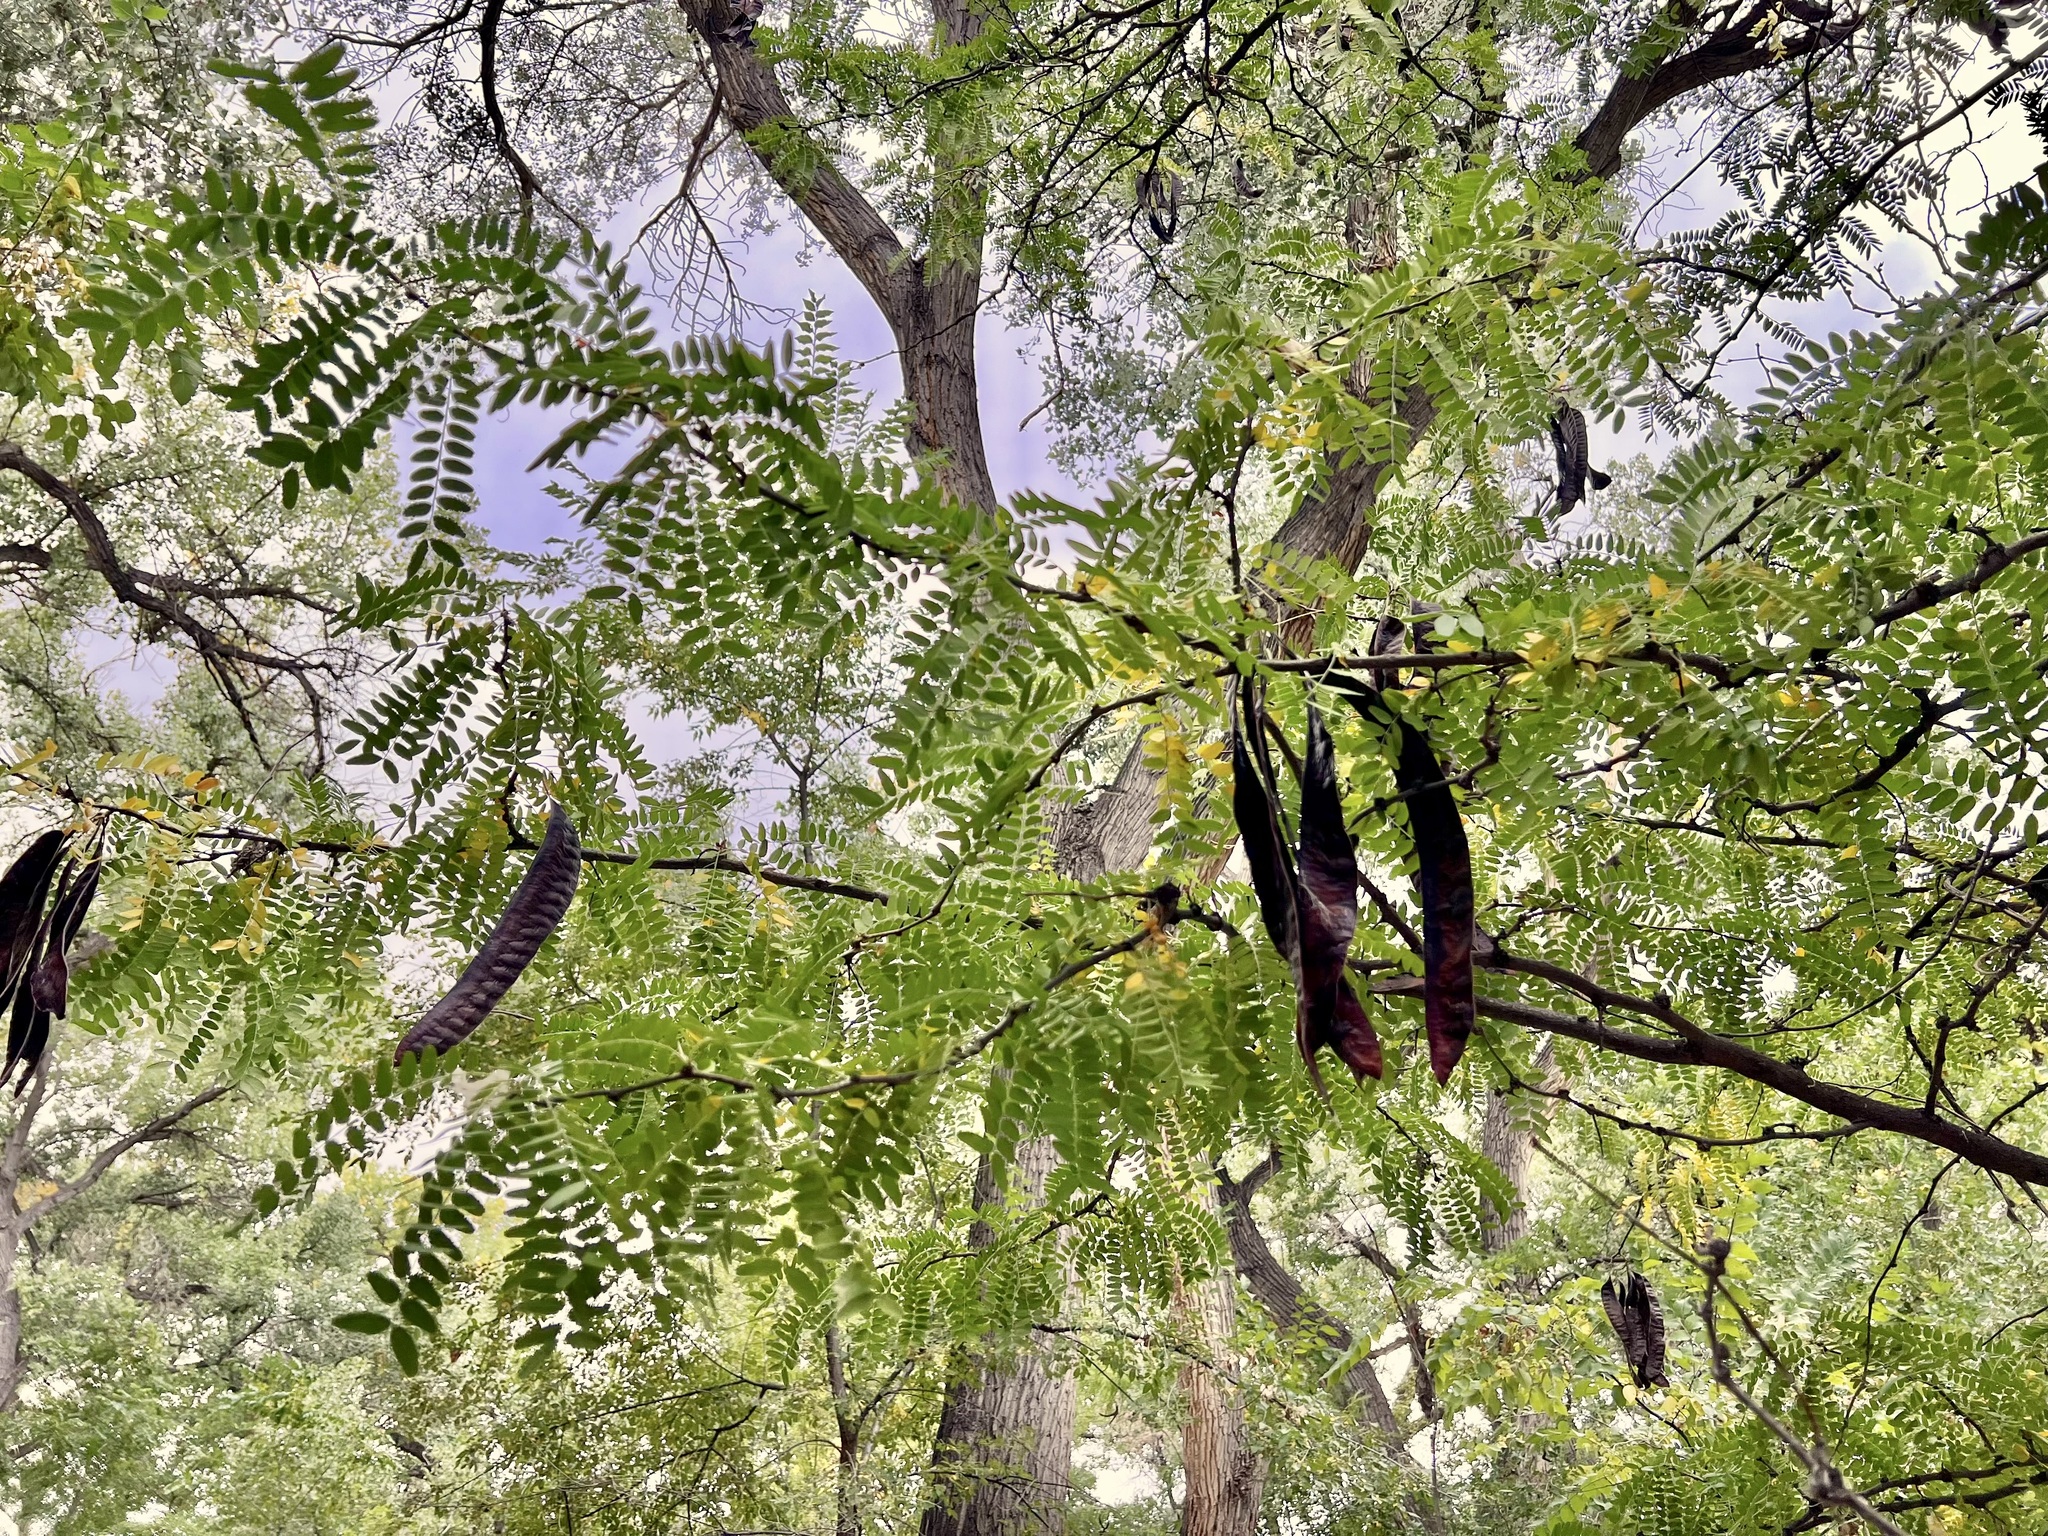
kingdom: Plantae
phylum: Tracheophyta
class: Magnoliopsida
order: Fabales
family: Fabaceae
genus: Gleditsia
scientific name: Gleditsia triacanthos
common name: Common honeylocust
